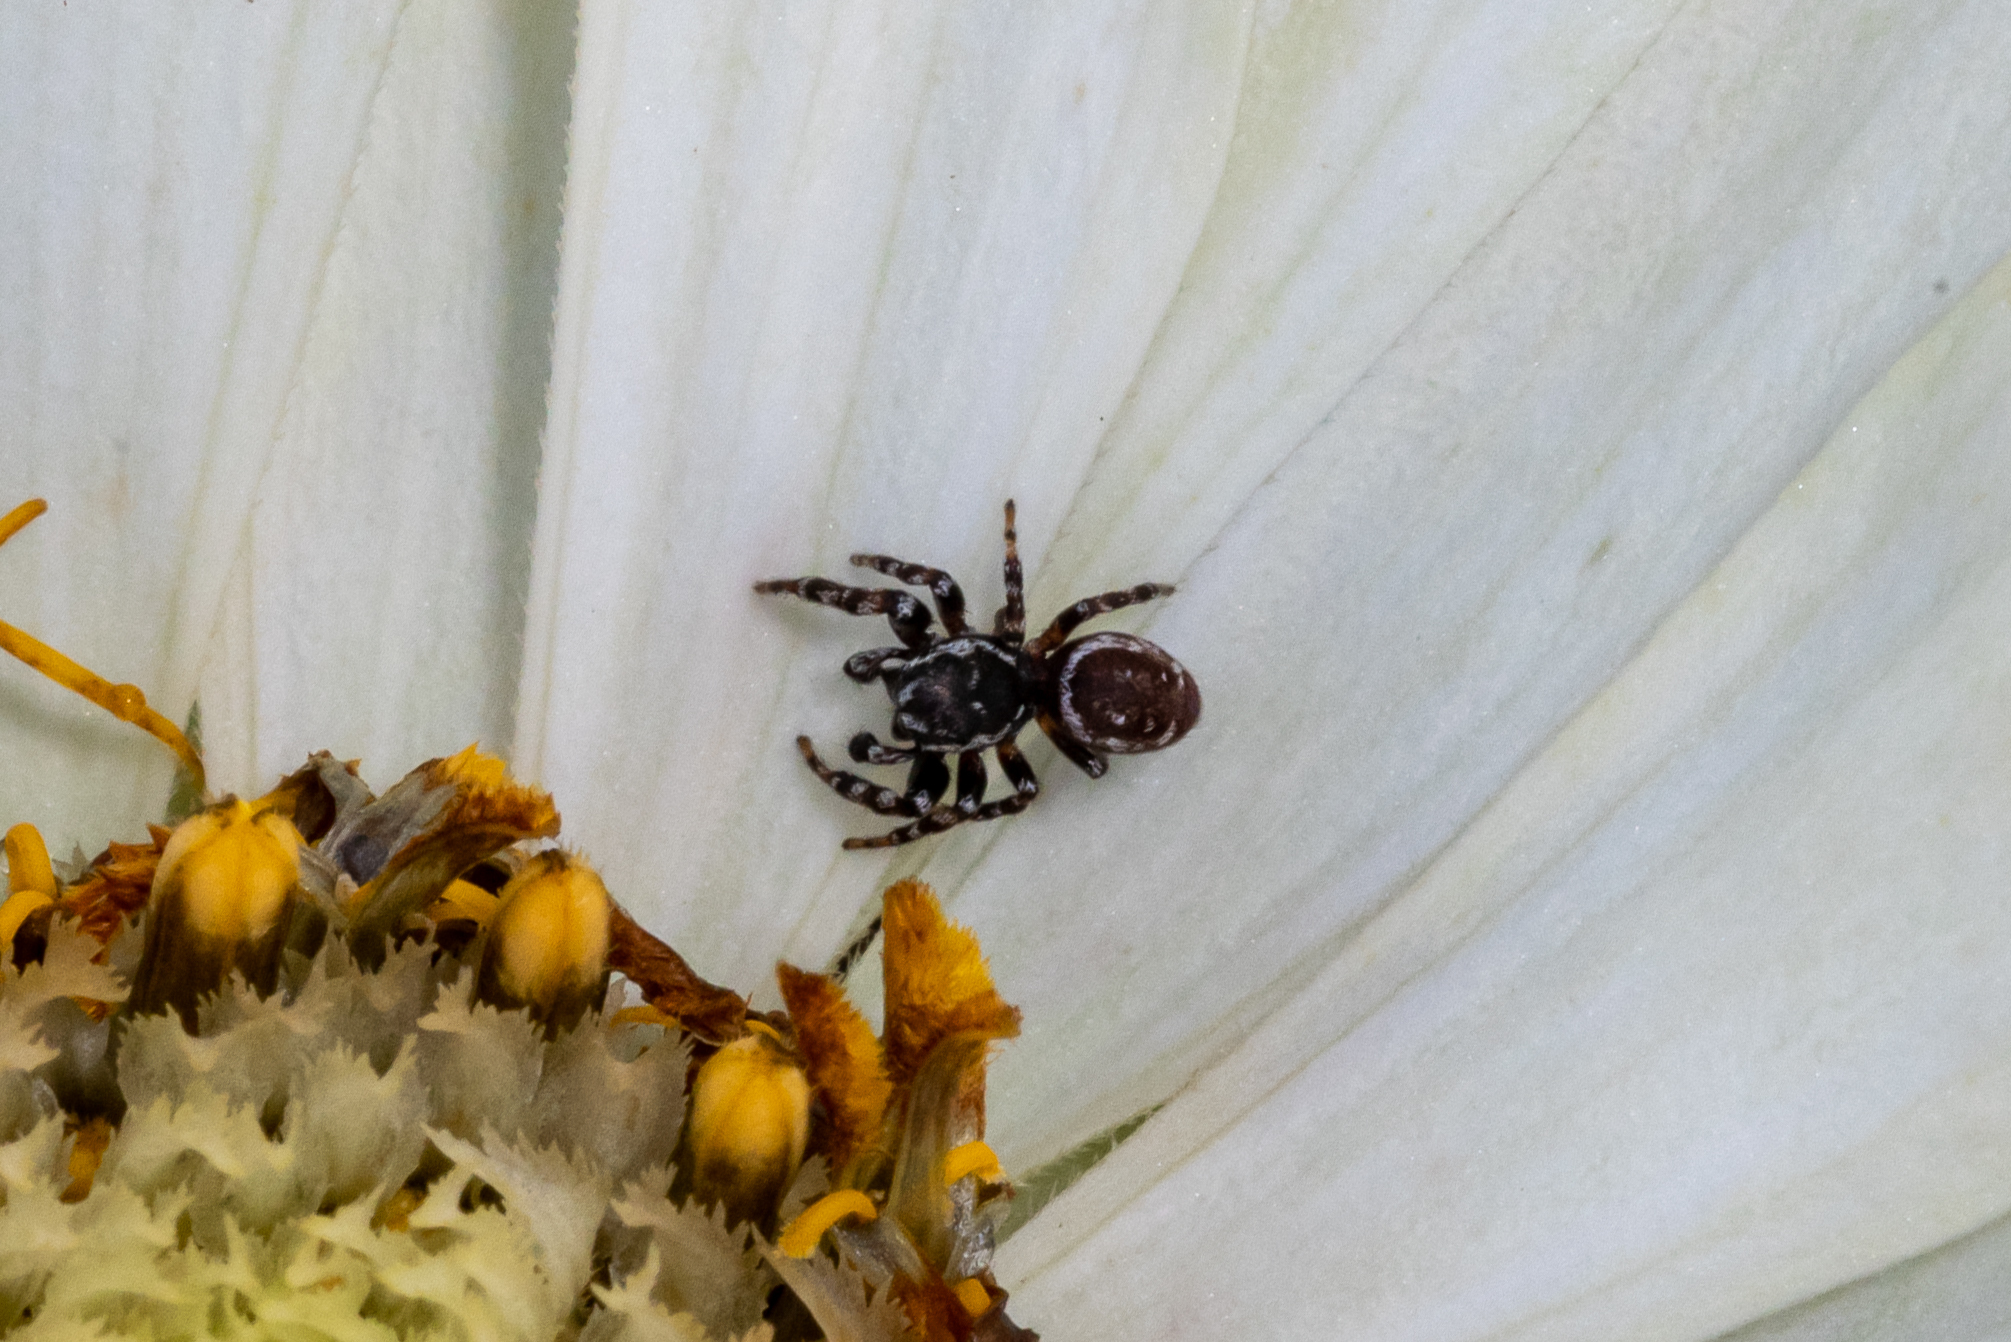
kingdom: Animalia
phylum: Arthropoda
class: Arachnida
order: Araneae
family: Salticidae
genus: Pelegrina
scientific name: Pelegrina galathea
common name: Jumping spiders
